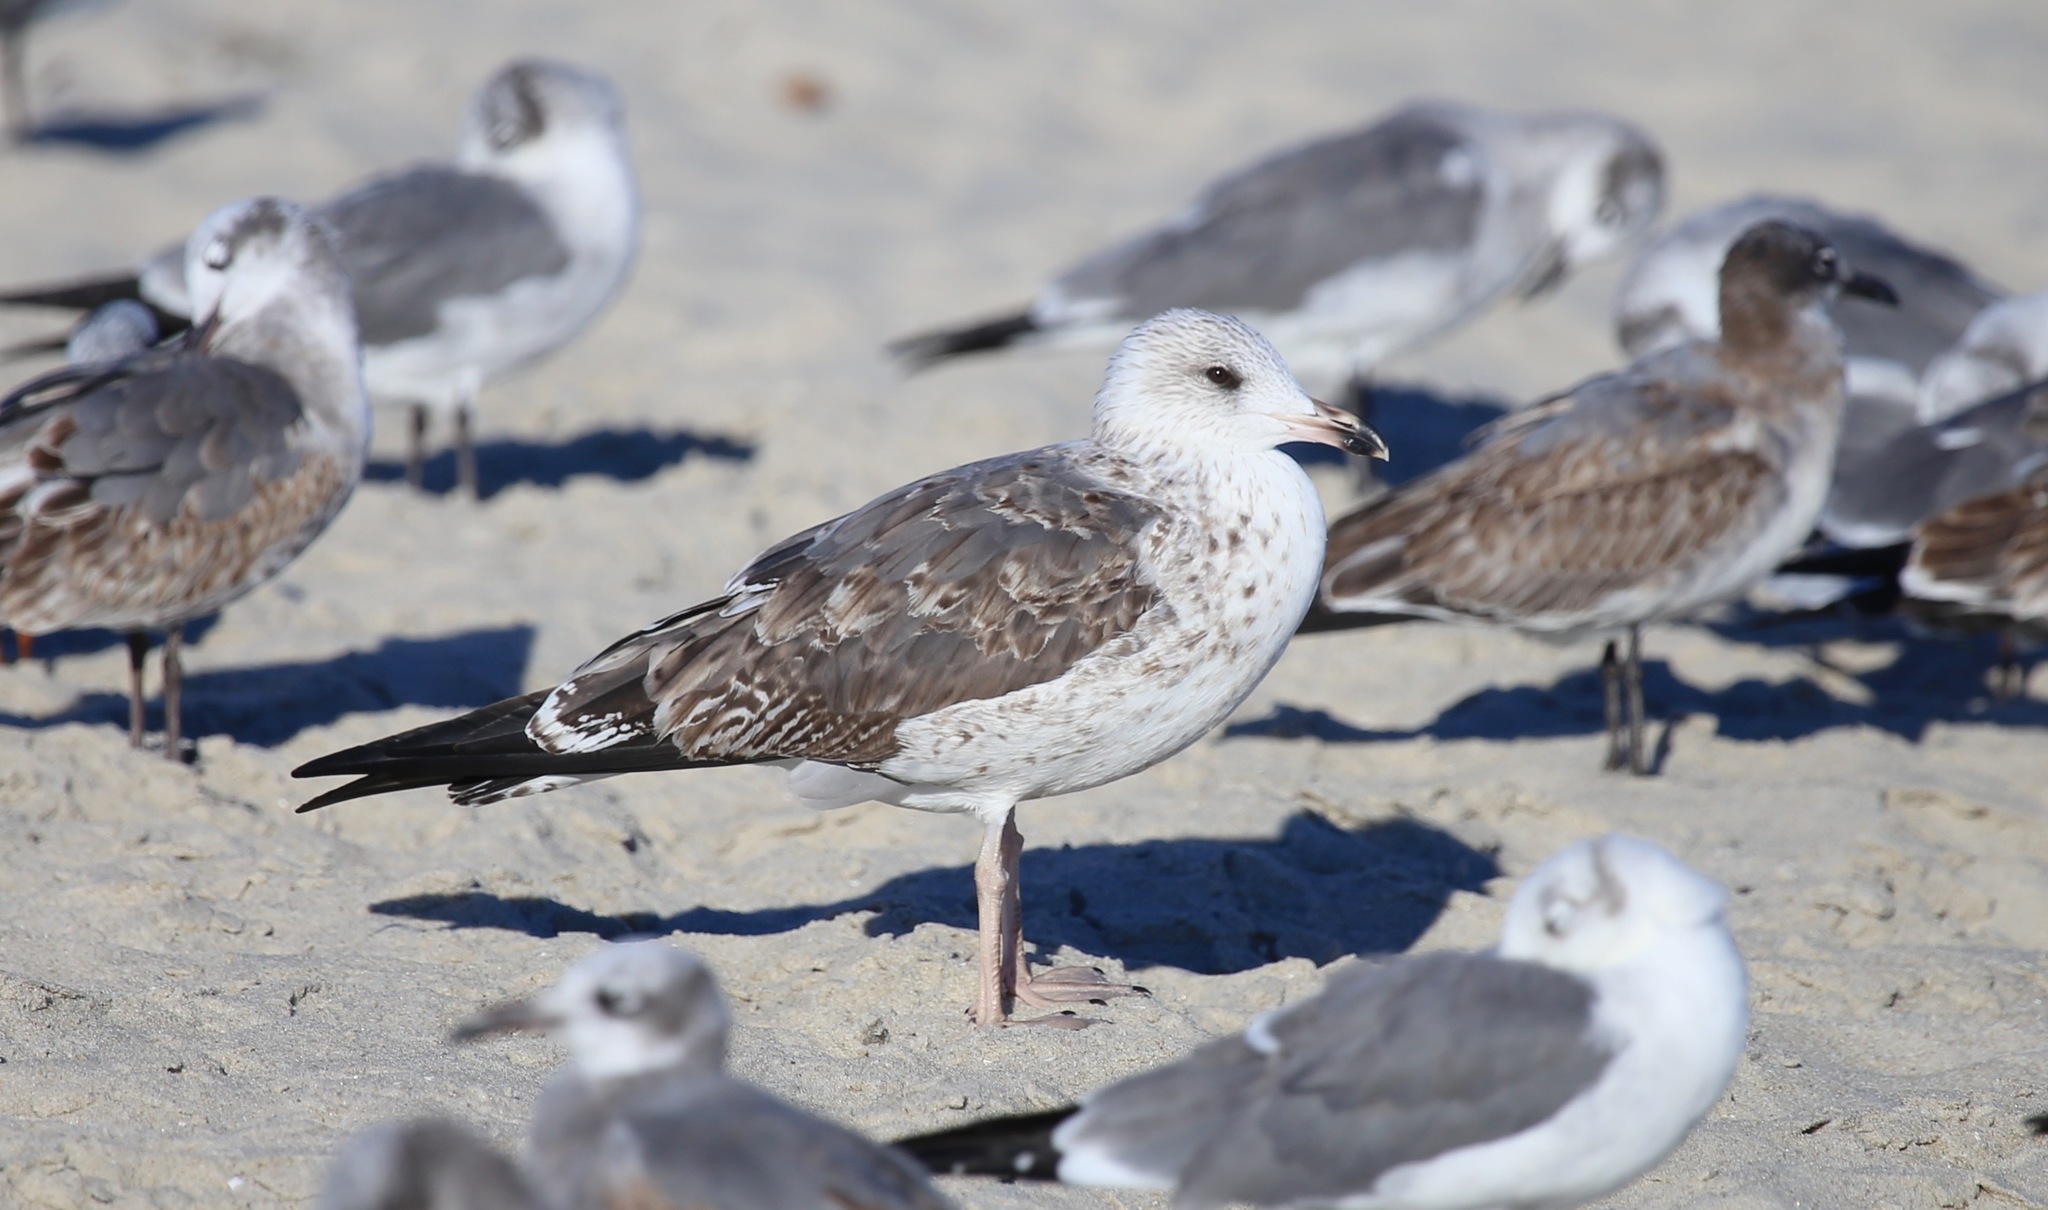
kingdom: Animalia
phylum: Chordata
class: Aves
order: Charadriiformes
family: Laridae
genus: Larus
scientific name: Larus fuscus
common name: Lesser black-backed gull
